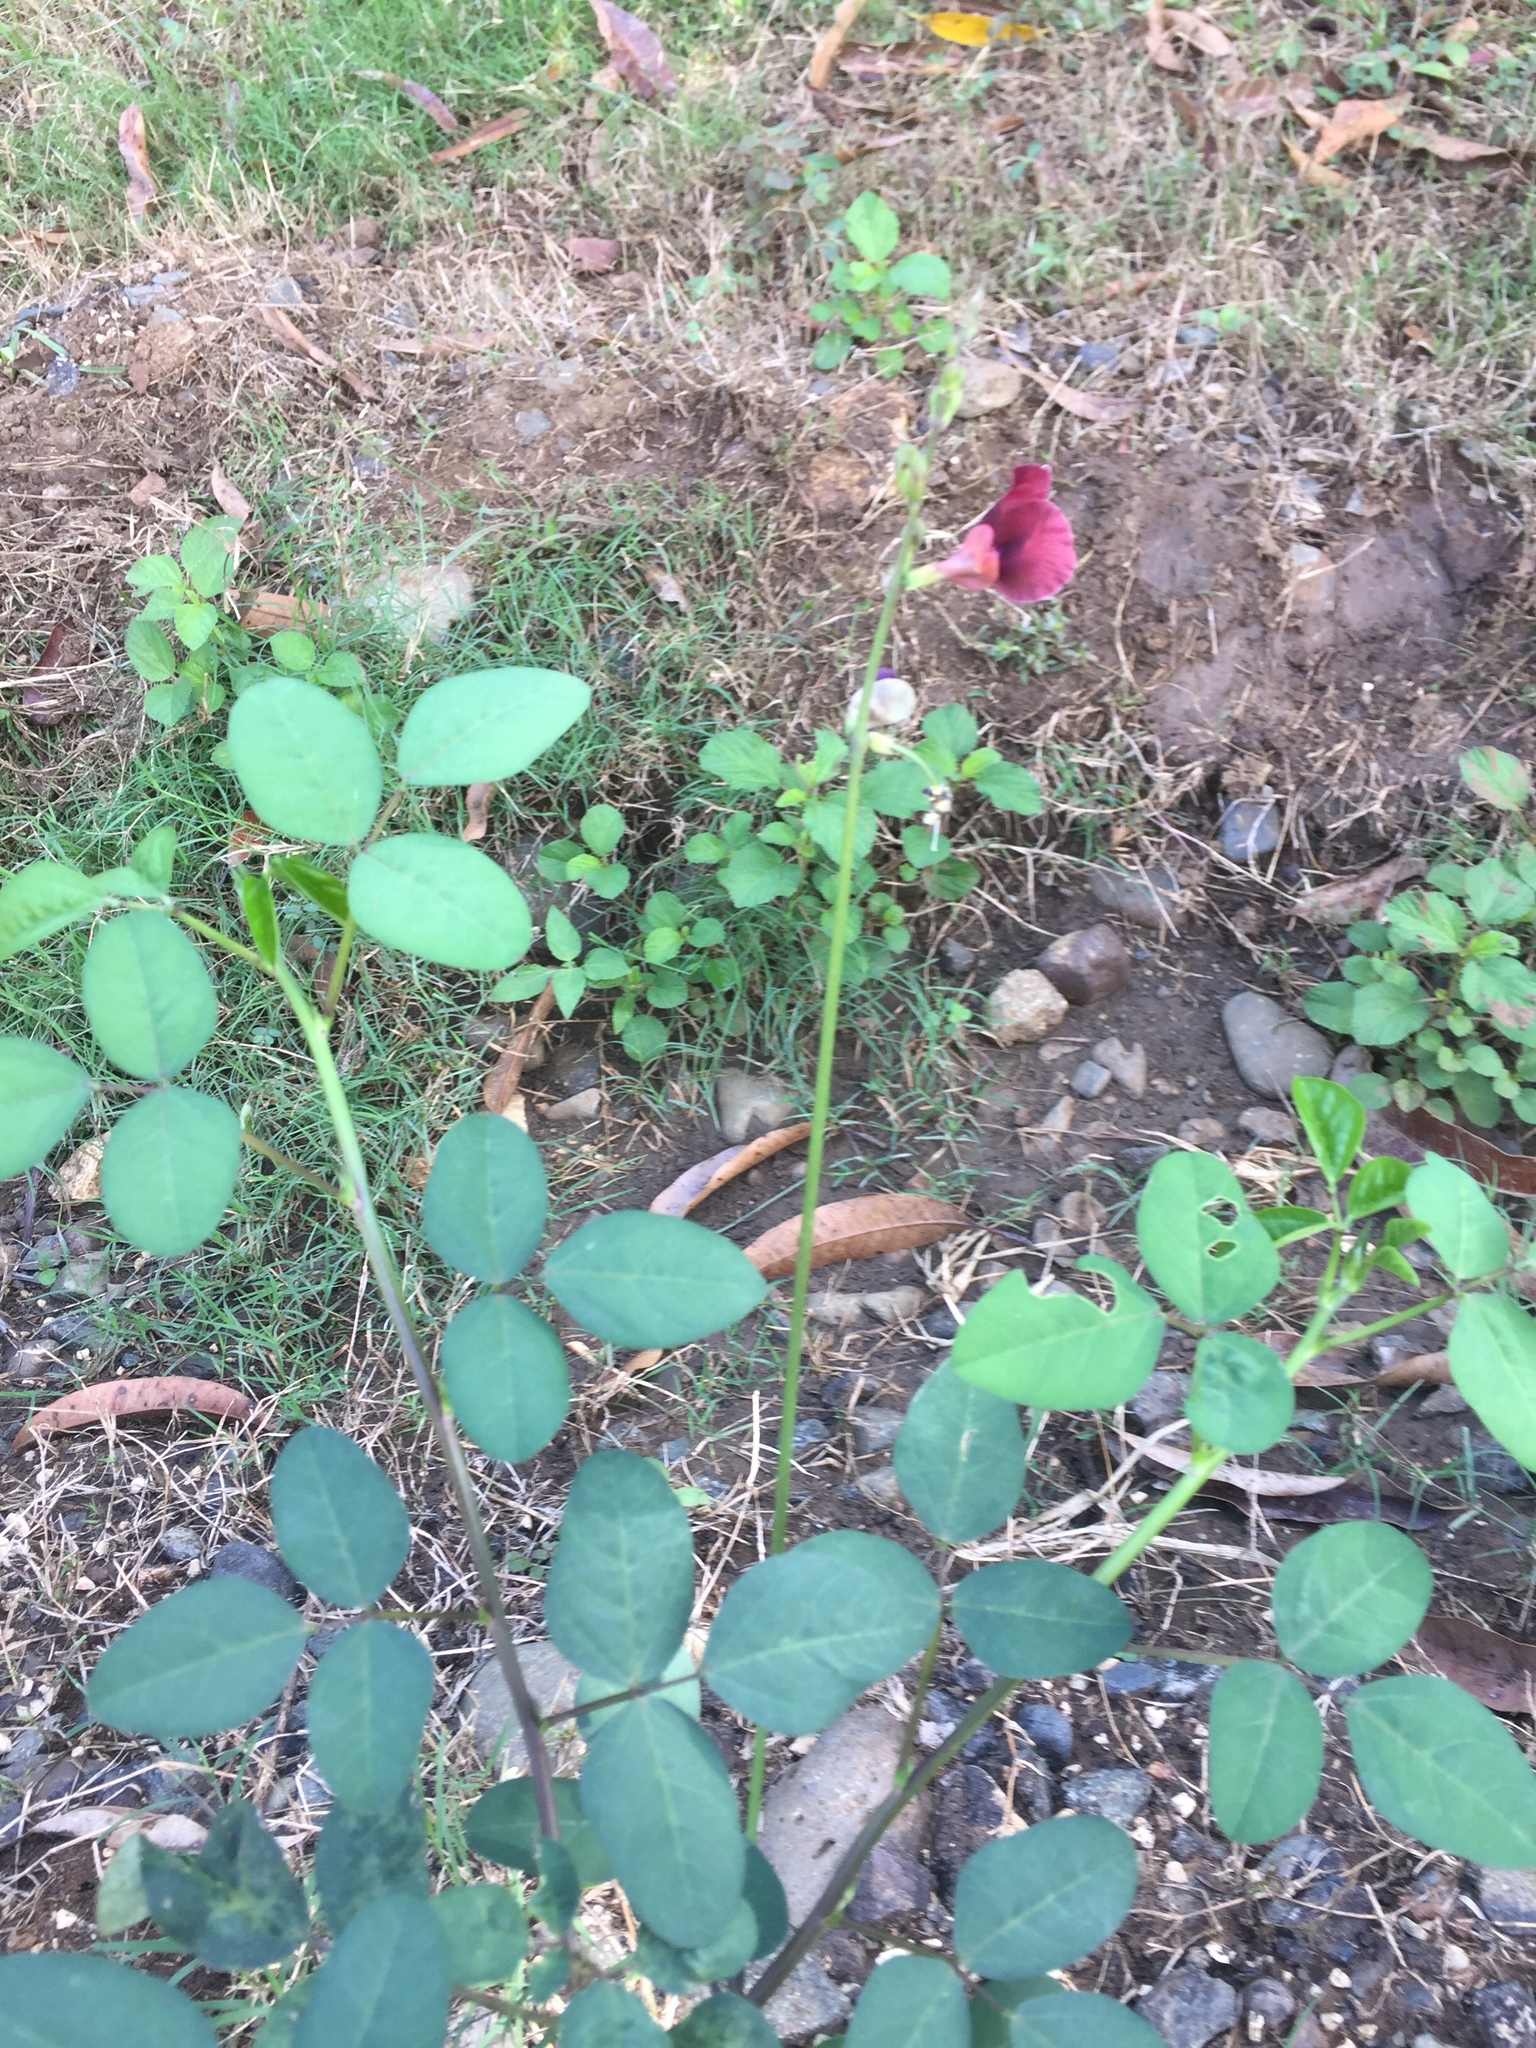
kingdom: Plantae
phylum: Tracheophyta
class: Magnoliopsida
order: Fabales
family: Fabaceae
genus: Macroptilium
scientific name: Macroptilium lathyroides
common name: Wild bushbean
